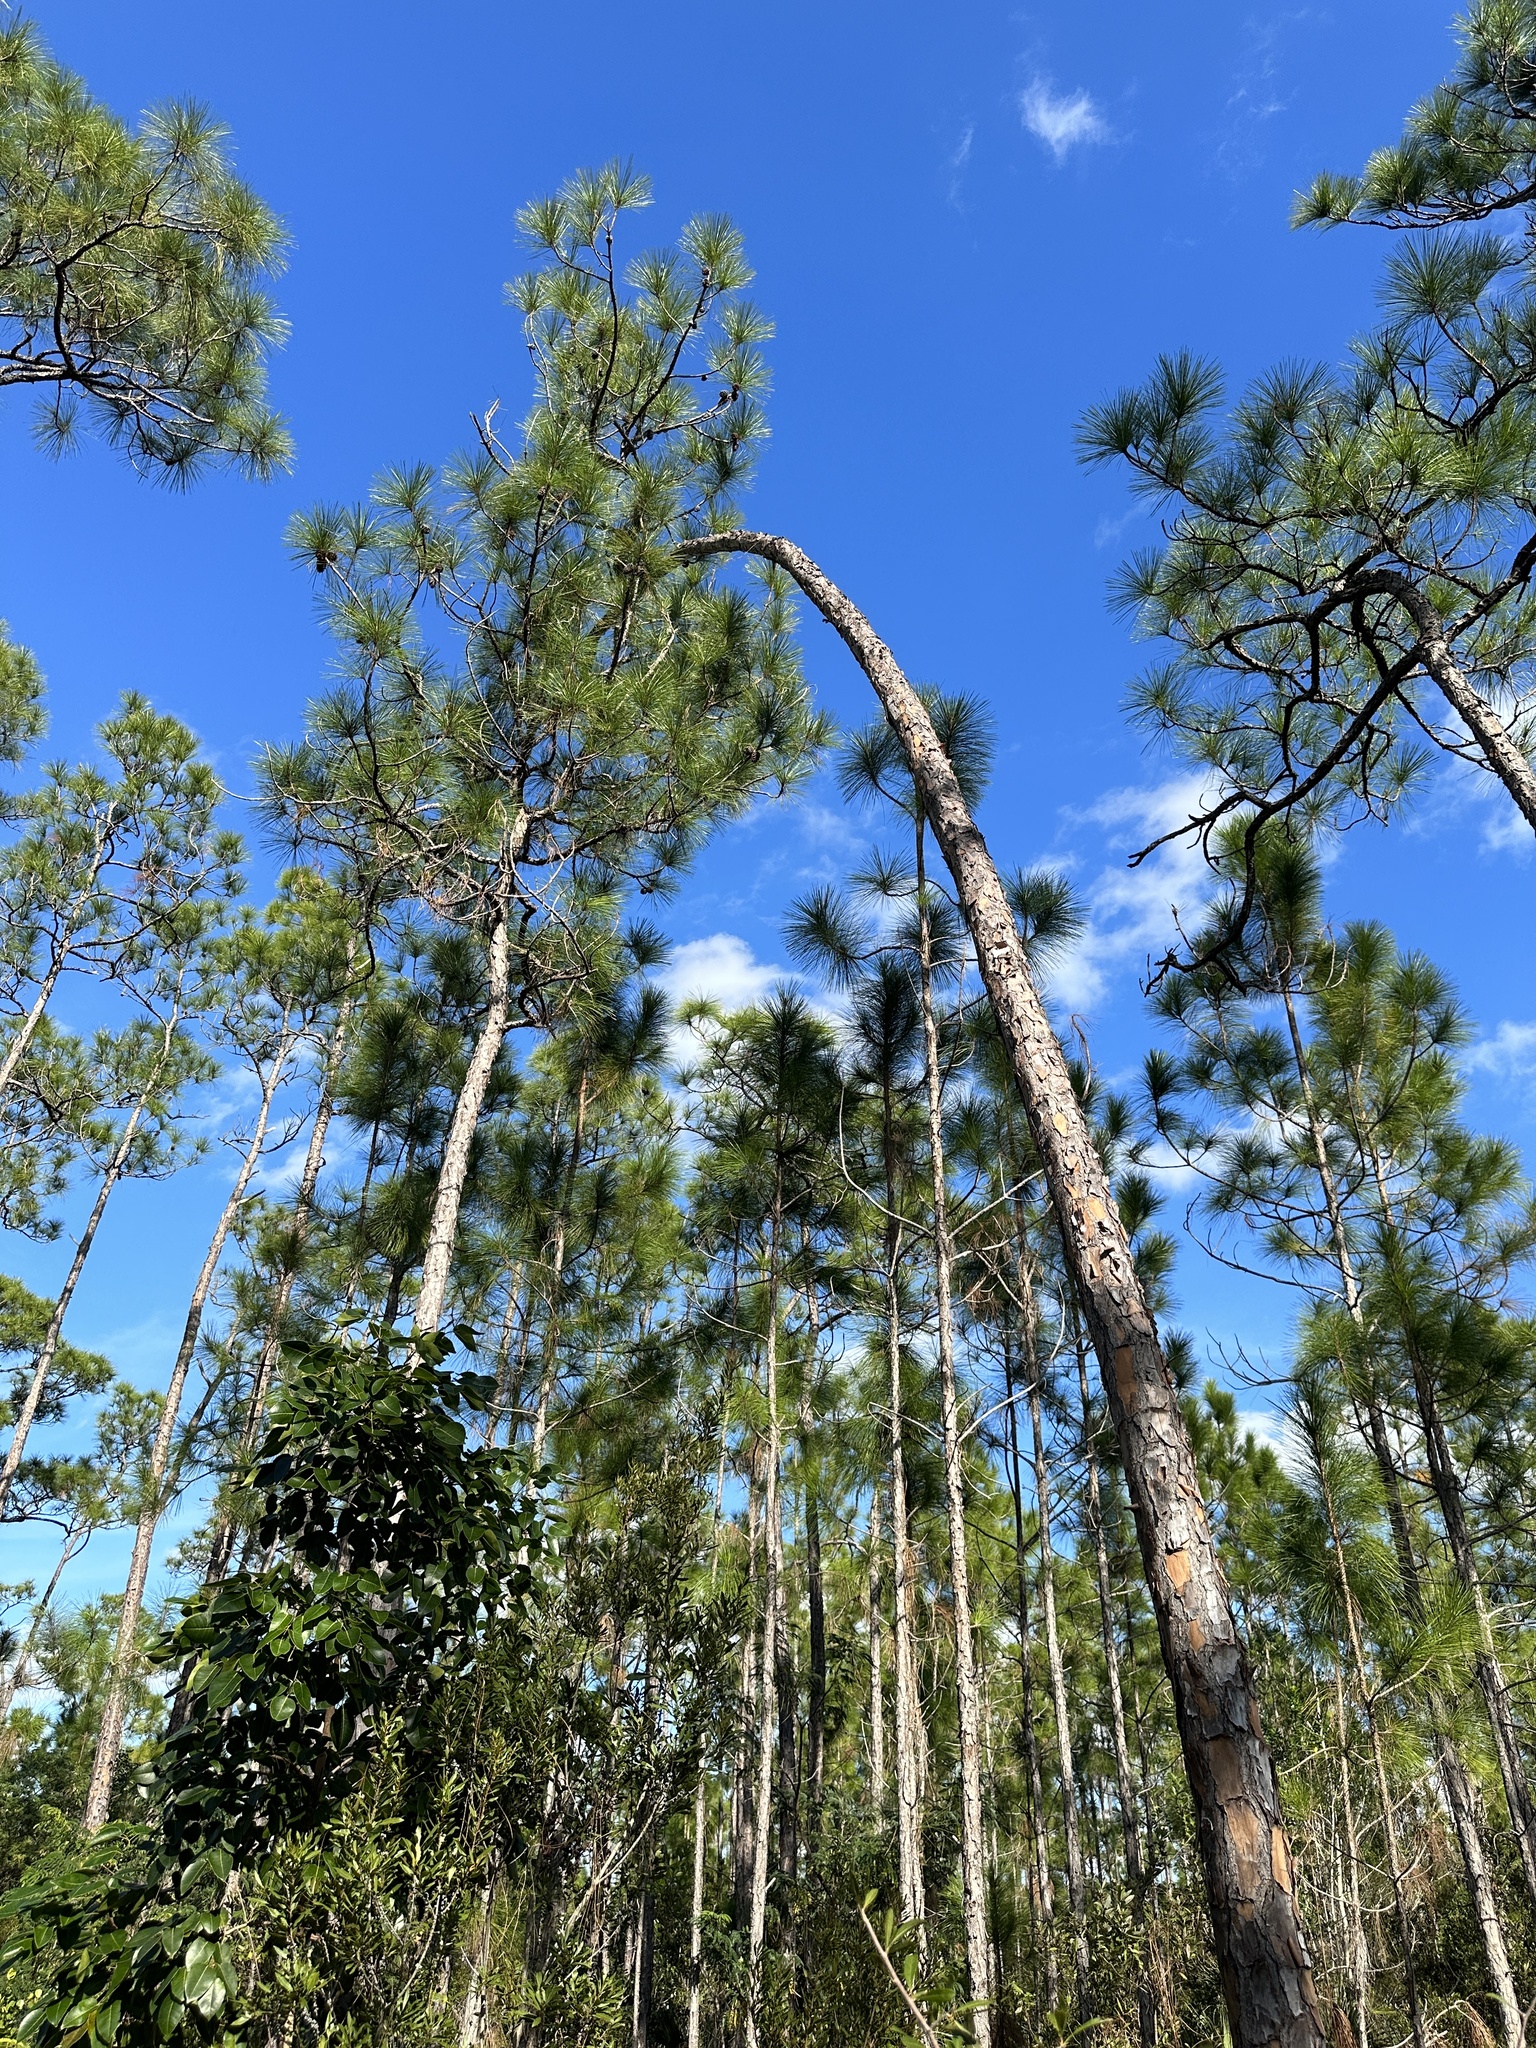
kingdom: Plantae
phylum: Tracheophyta
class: Pinopsida
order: Pinales
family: Pinaceae
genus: Pinus
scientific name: Pinus elliottii
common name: Slash pine
